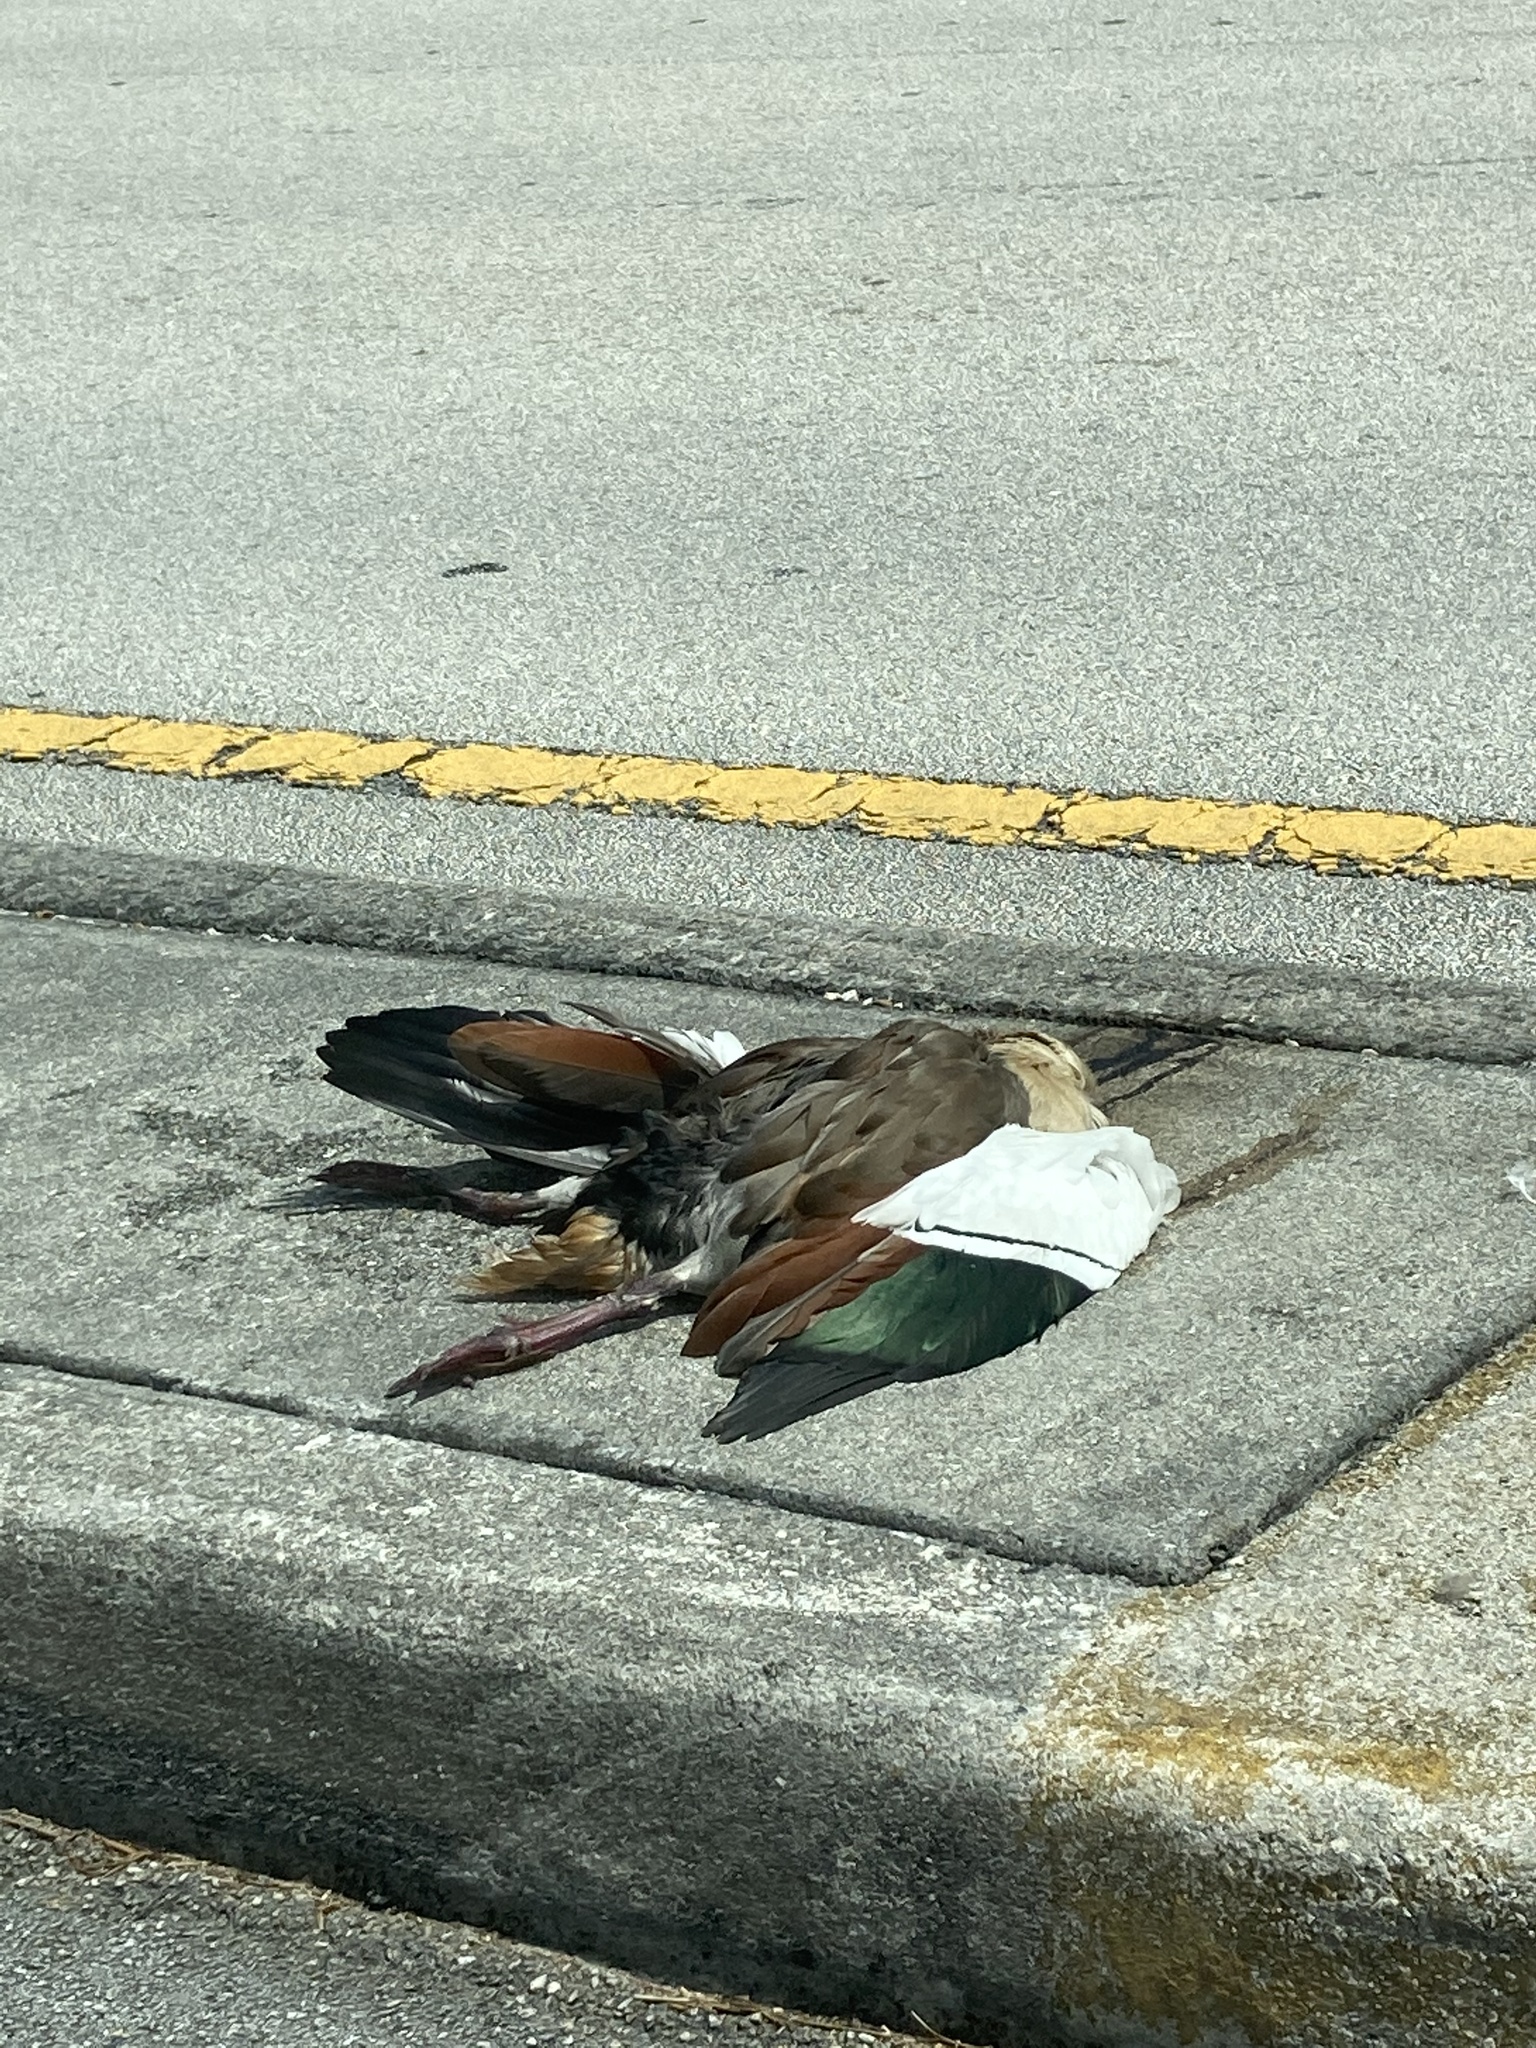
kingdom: Animalia
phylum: Chordata
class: Aves
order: Anseriformes
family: Anatidae
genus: Alopochen
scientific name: Alopochen aegyptiaca
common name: Egyptian goose
